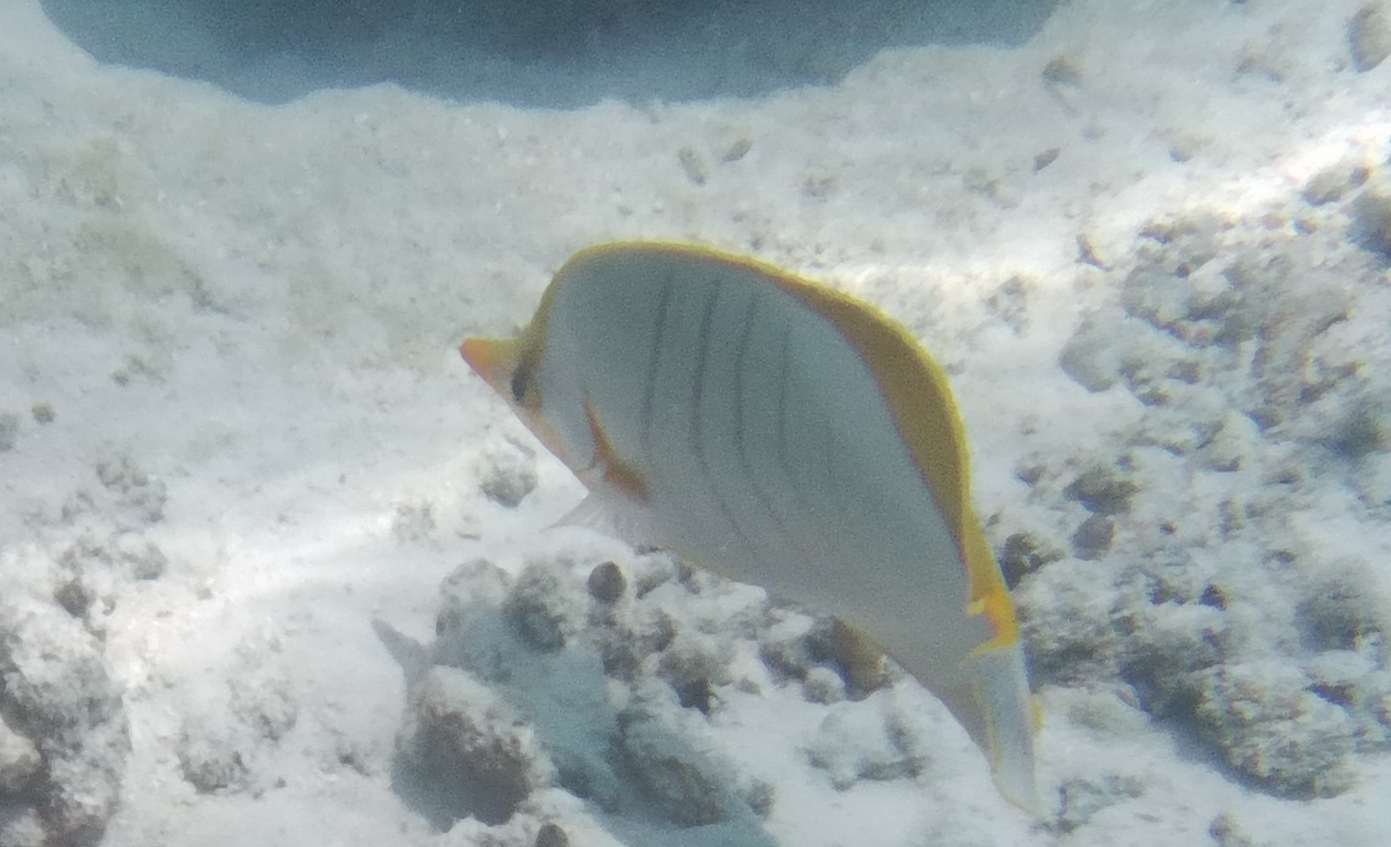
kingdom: Animalia
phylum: Chordata
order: Perciformes
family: Chaetodontidae
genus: Chaetodon
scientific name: Chaetodon xanthocephalus
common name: Yellowhead butterflyfish
